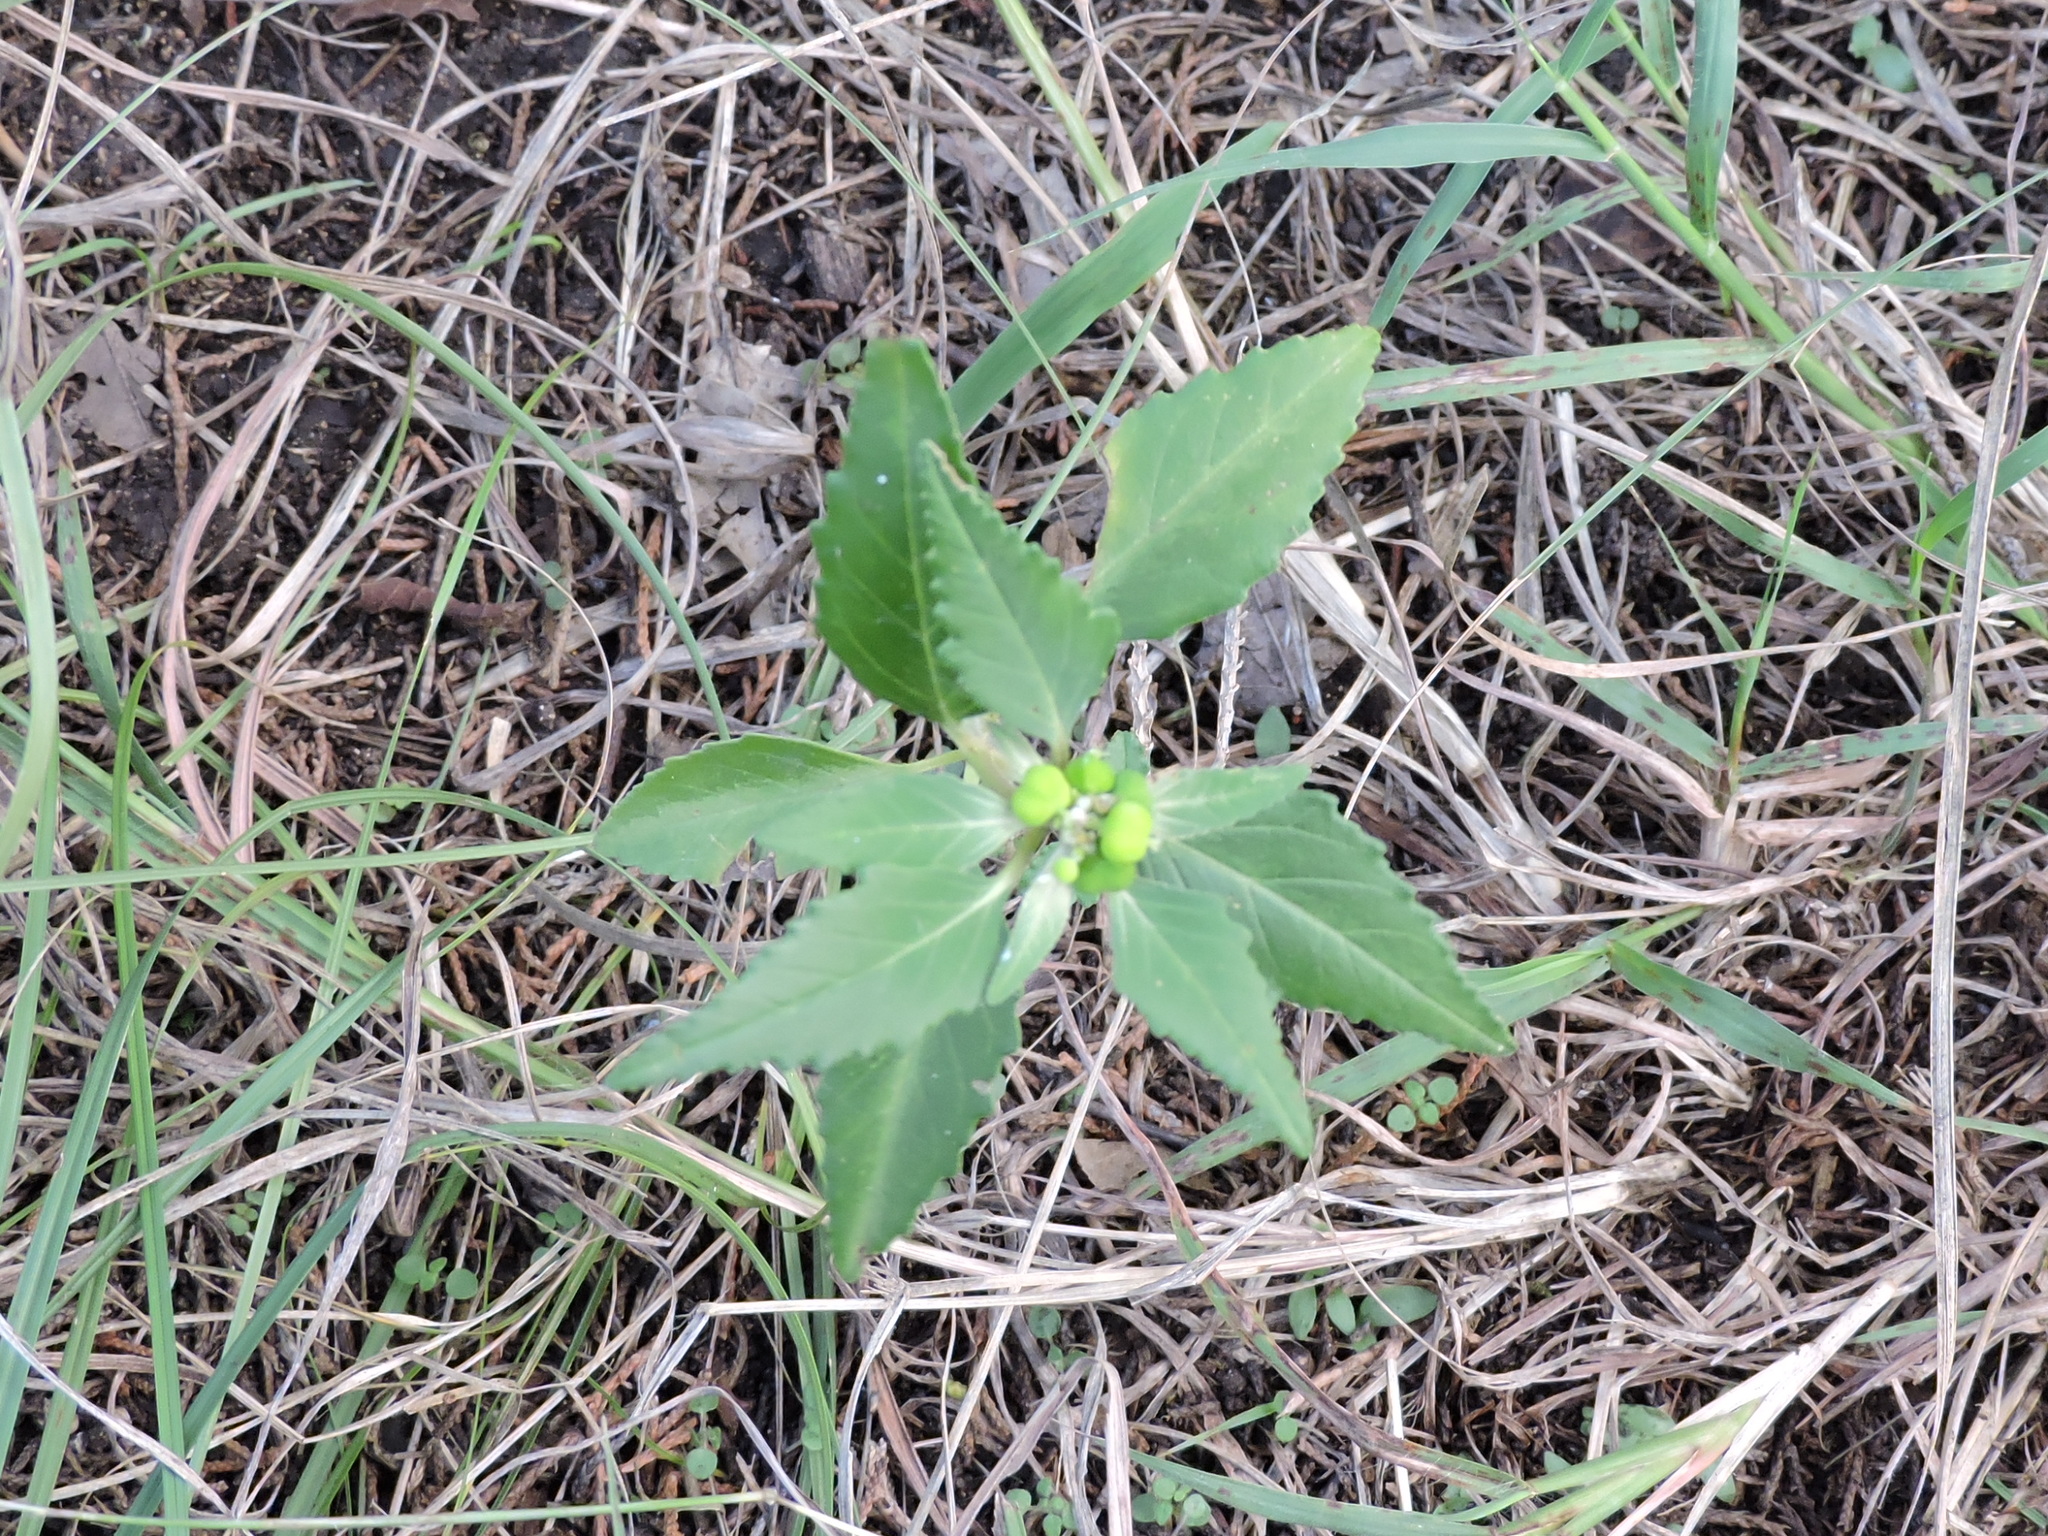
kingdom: Plantae
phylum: Tracheophyta
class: Magnoliopsida
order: Malpighiales
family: Euphorbiaceae
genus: Euphorbia
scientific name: Euphorbia dentata
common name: Dentate spurge
